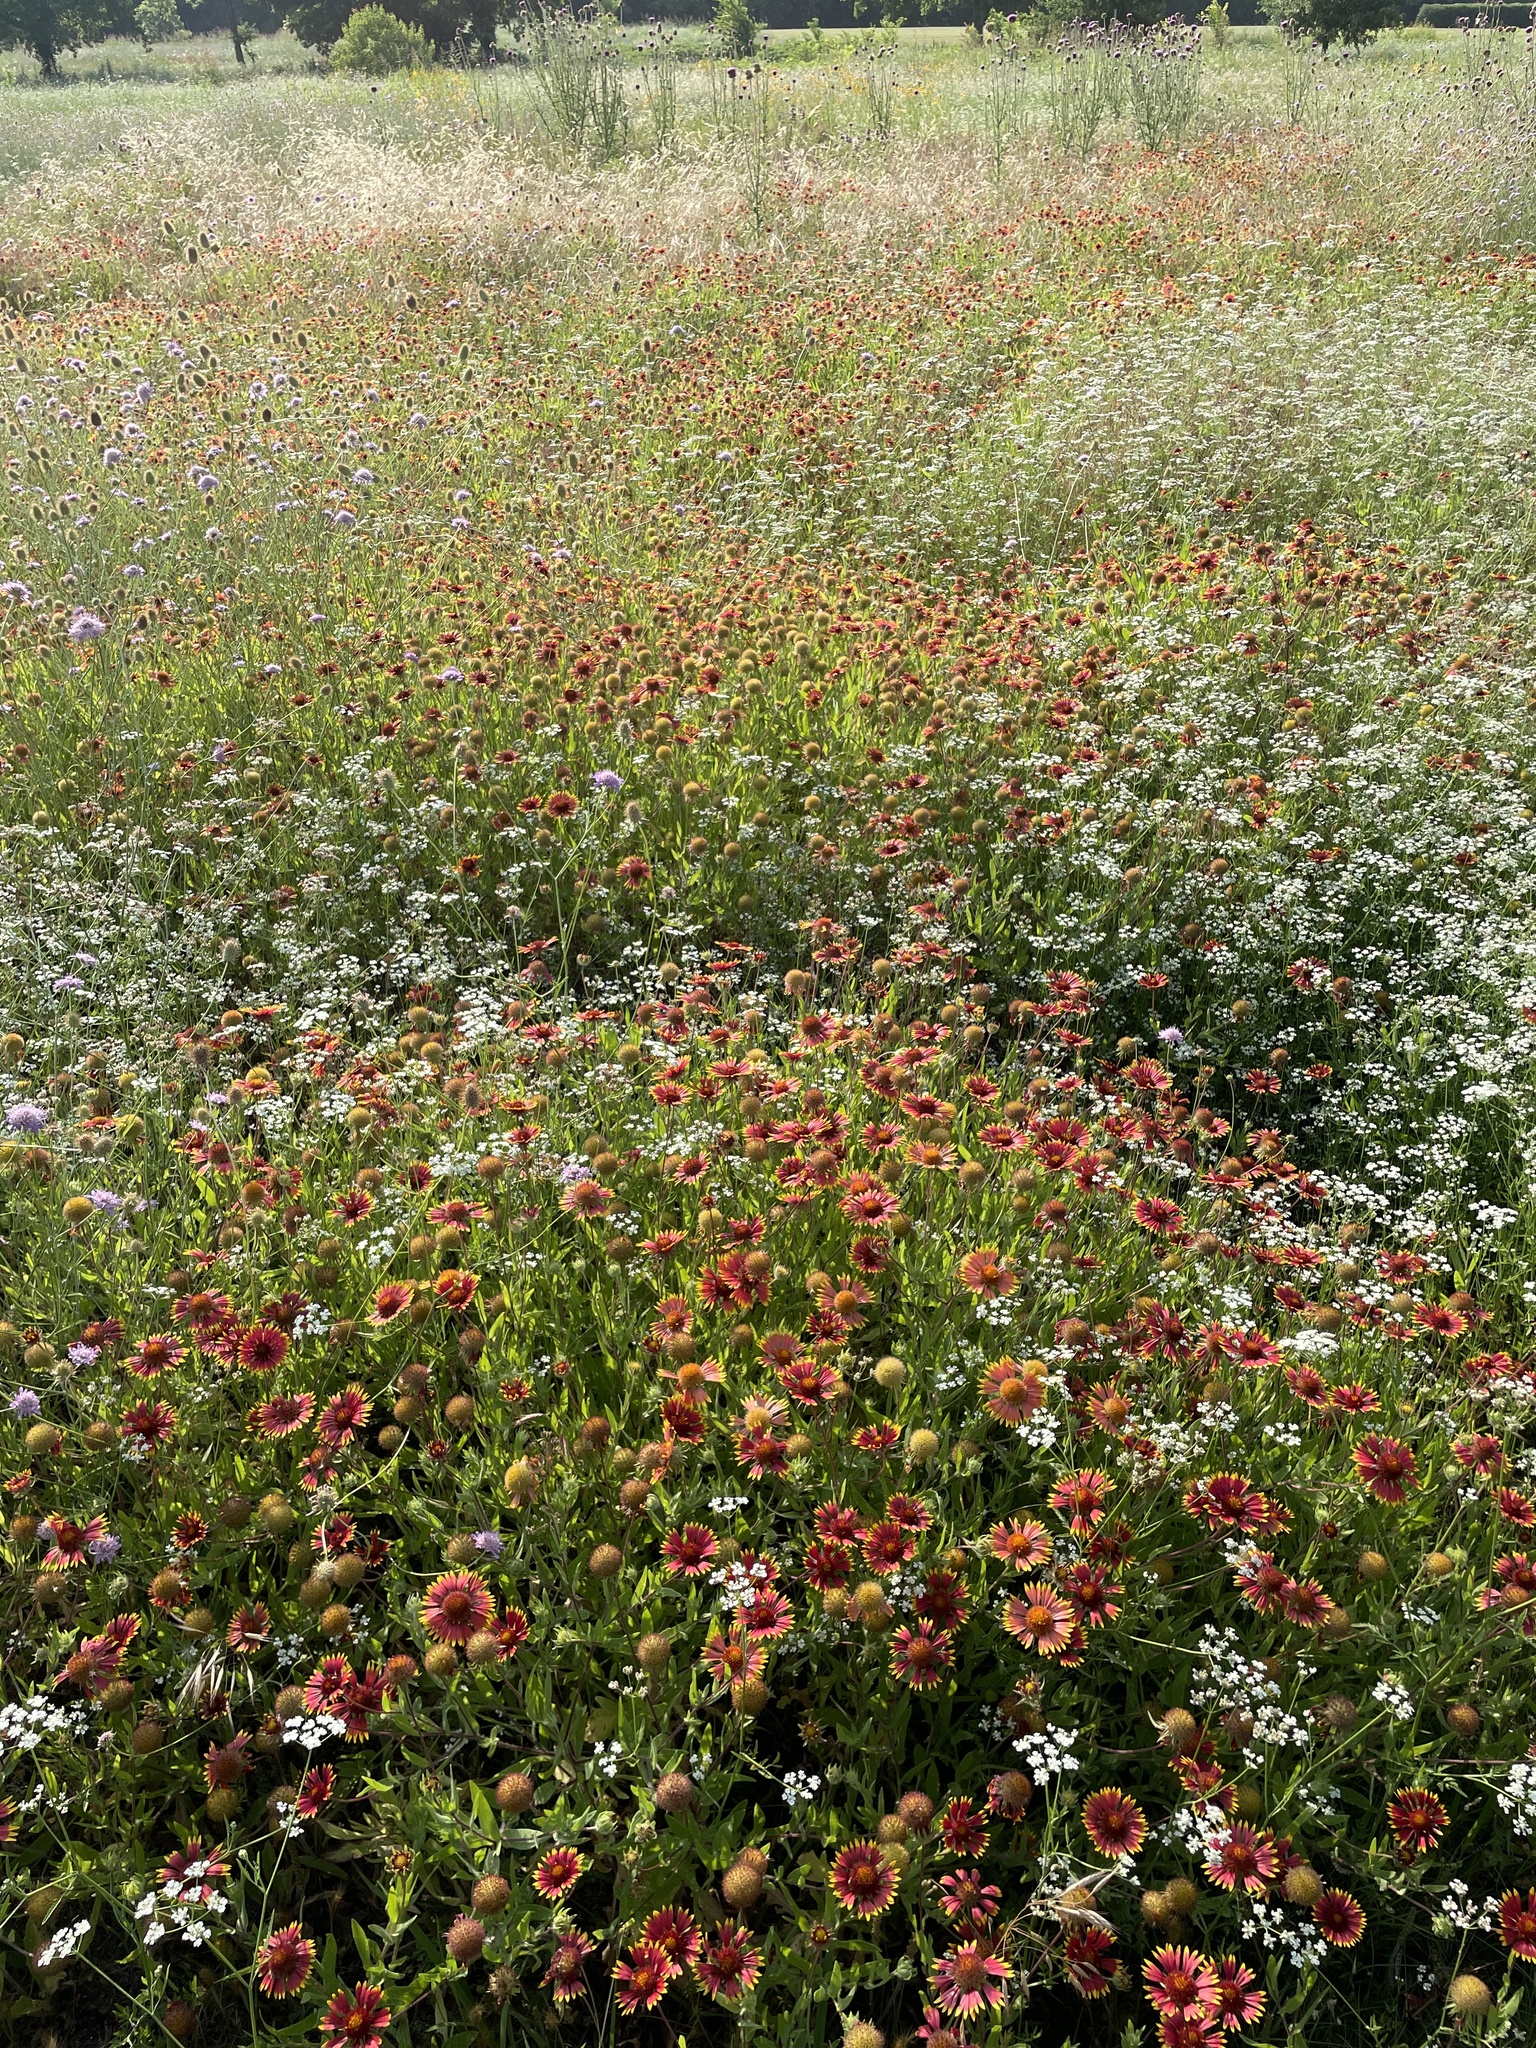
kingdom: Plantae
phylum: Tracheophyta
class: Magnoliopsida
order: Asterales
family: Asteraceae
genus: Gaillardia
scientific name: Gaillardia pulchella
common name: Firewheel
